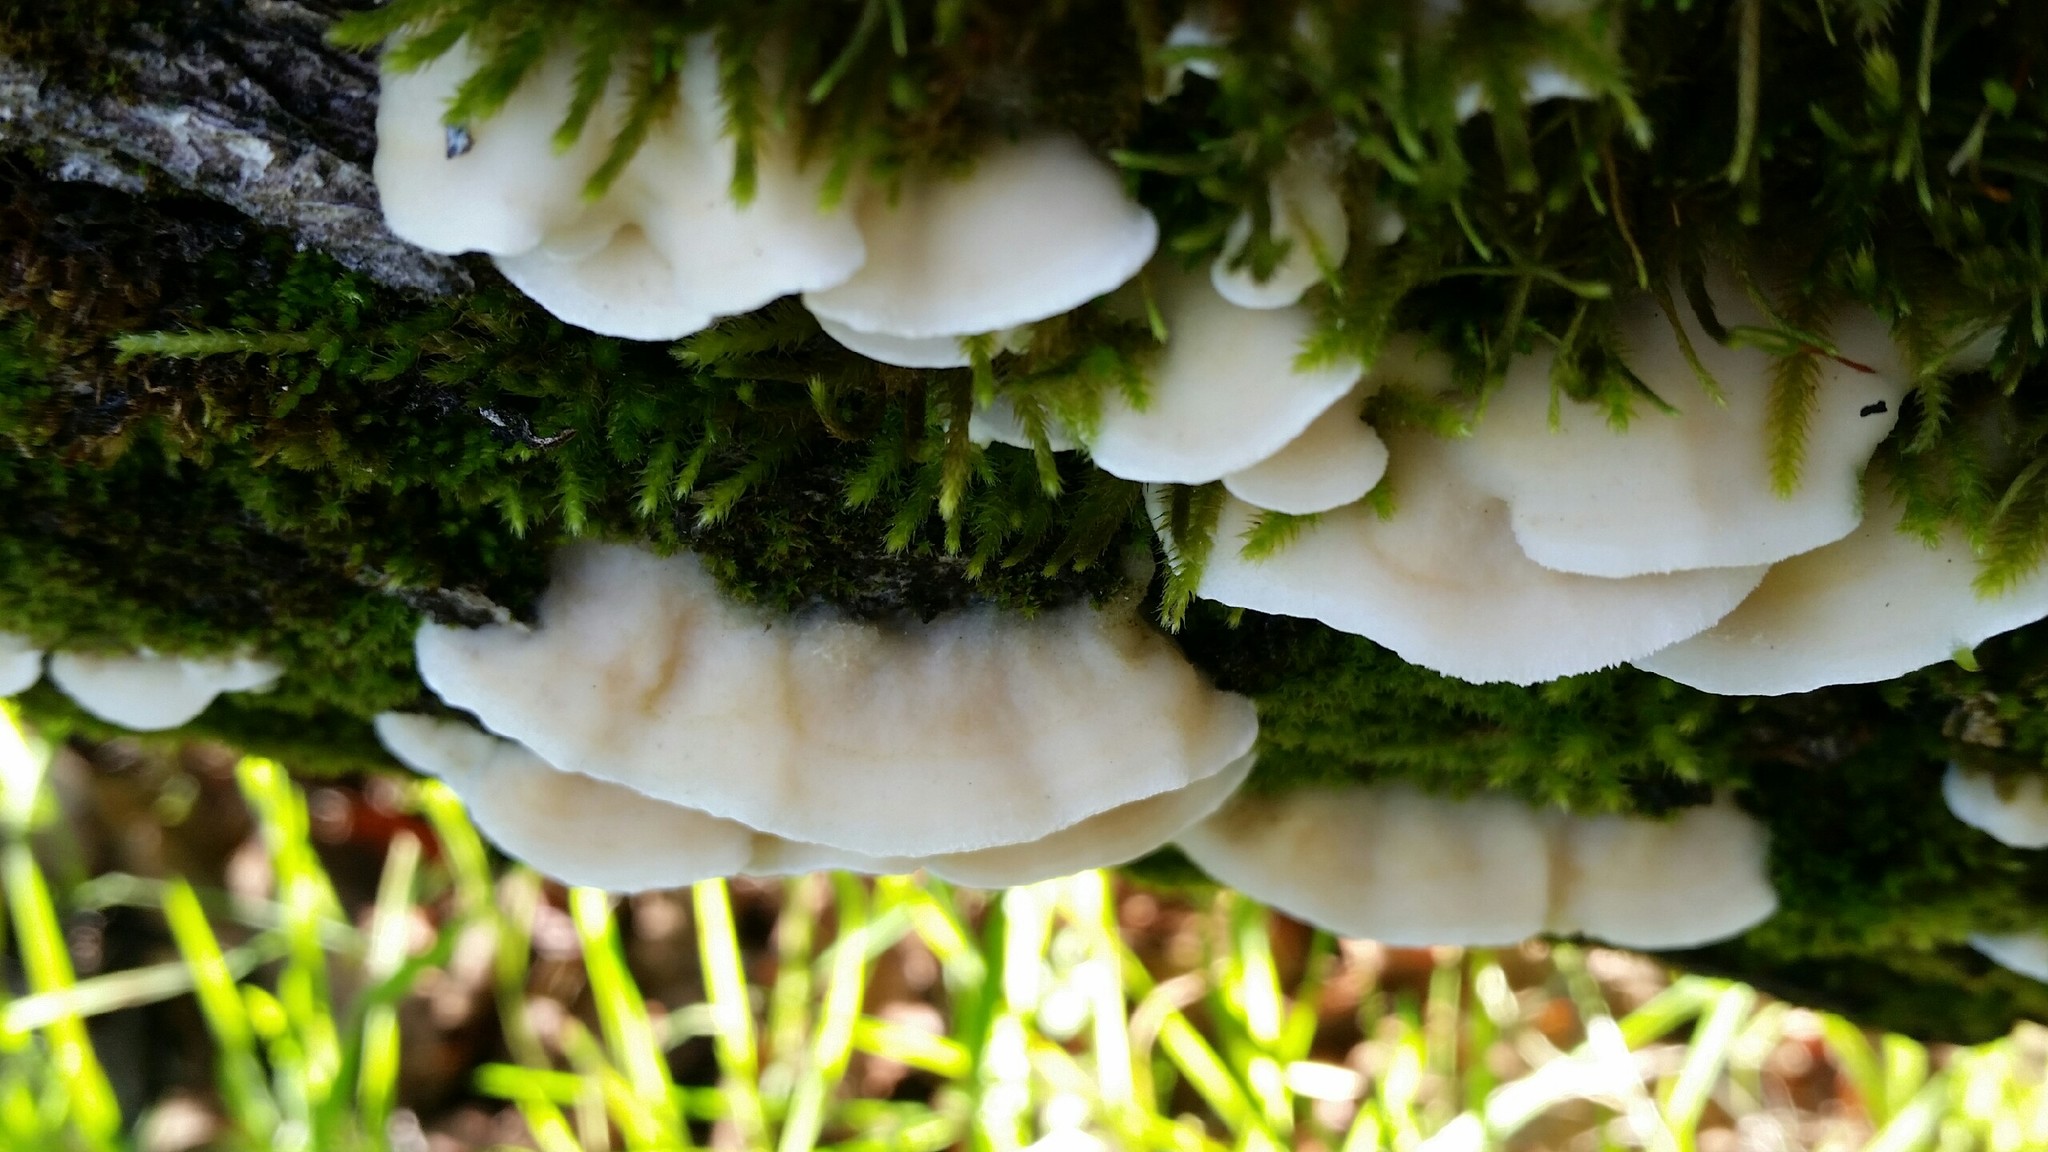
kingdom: Fungi
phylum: Basidiomycota
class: Agaricomycetes
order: Polyporales
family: Irpicaceae
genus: Vitreoporus
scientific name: Vitreoporus dichrous
